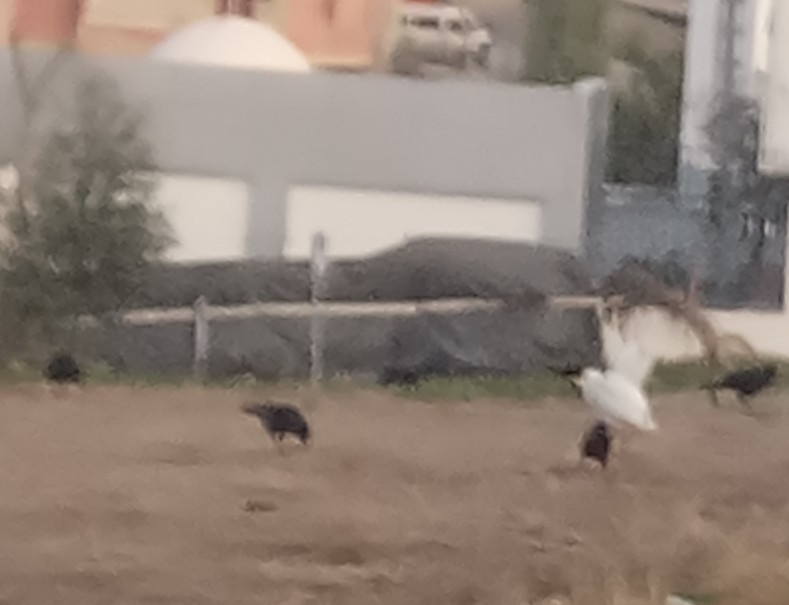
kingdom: Animalia
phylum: Chordata
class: Aves
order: Passeriformes
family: Corvidae
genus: Coloeus
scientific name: Coloeus monedula
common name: Western jackdaw
